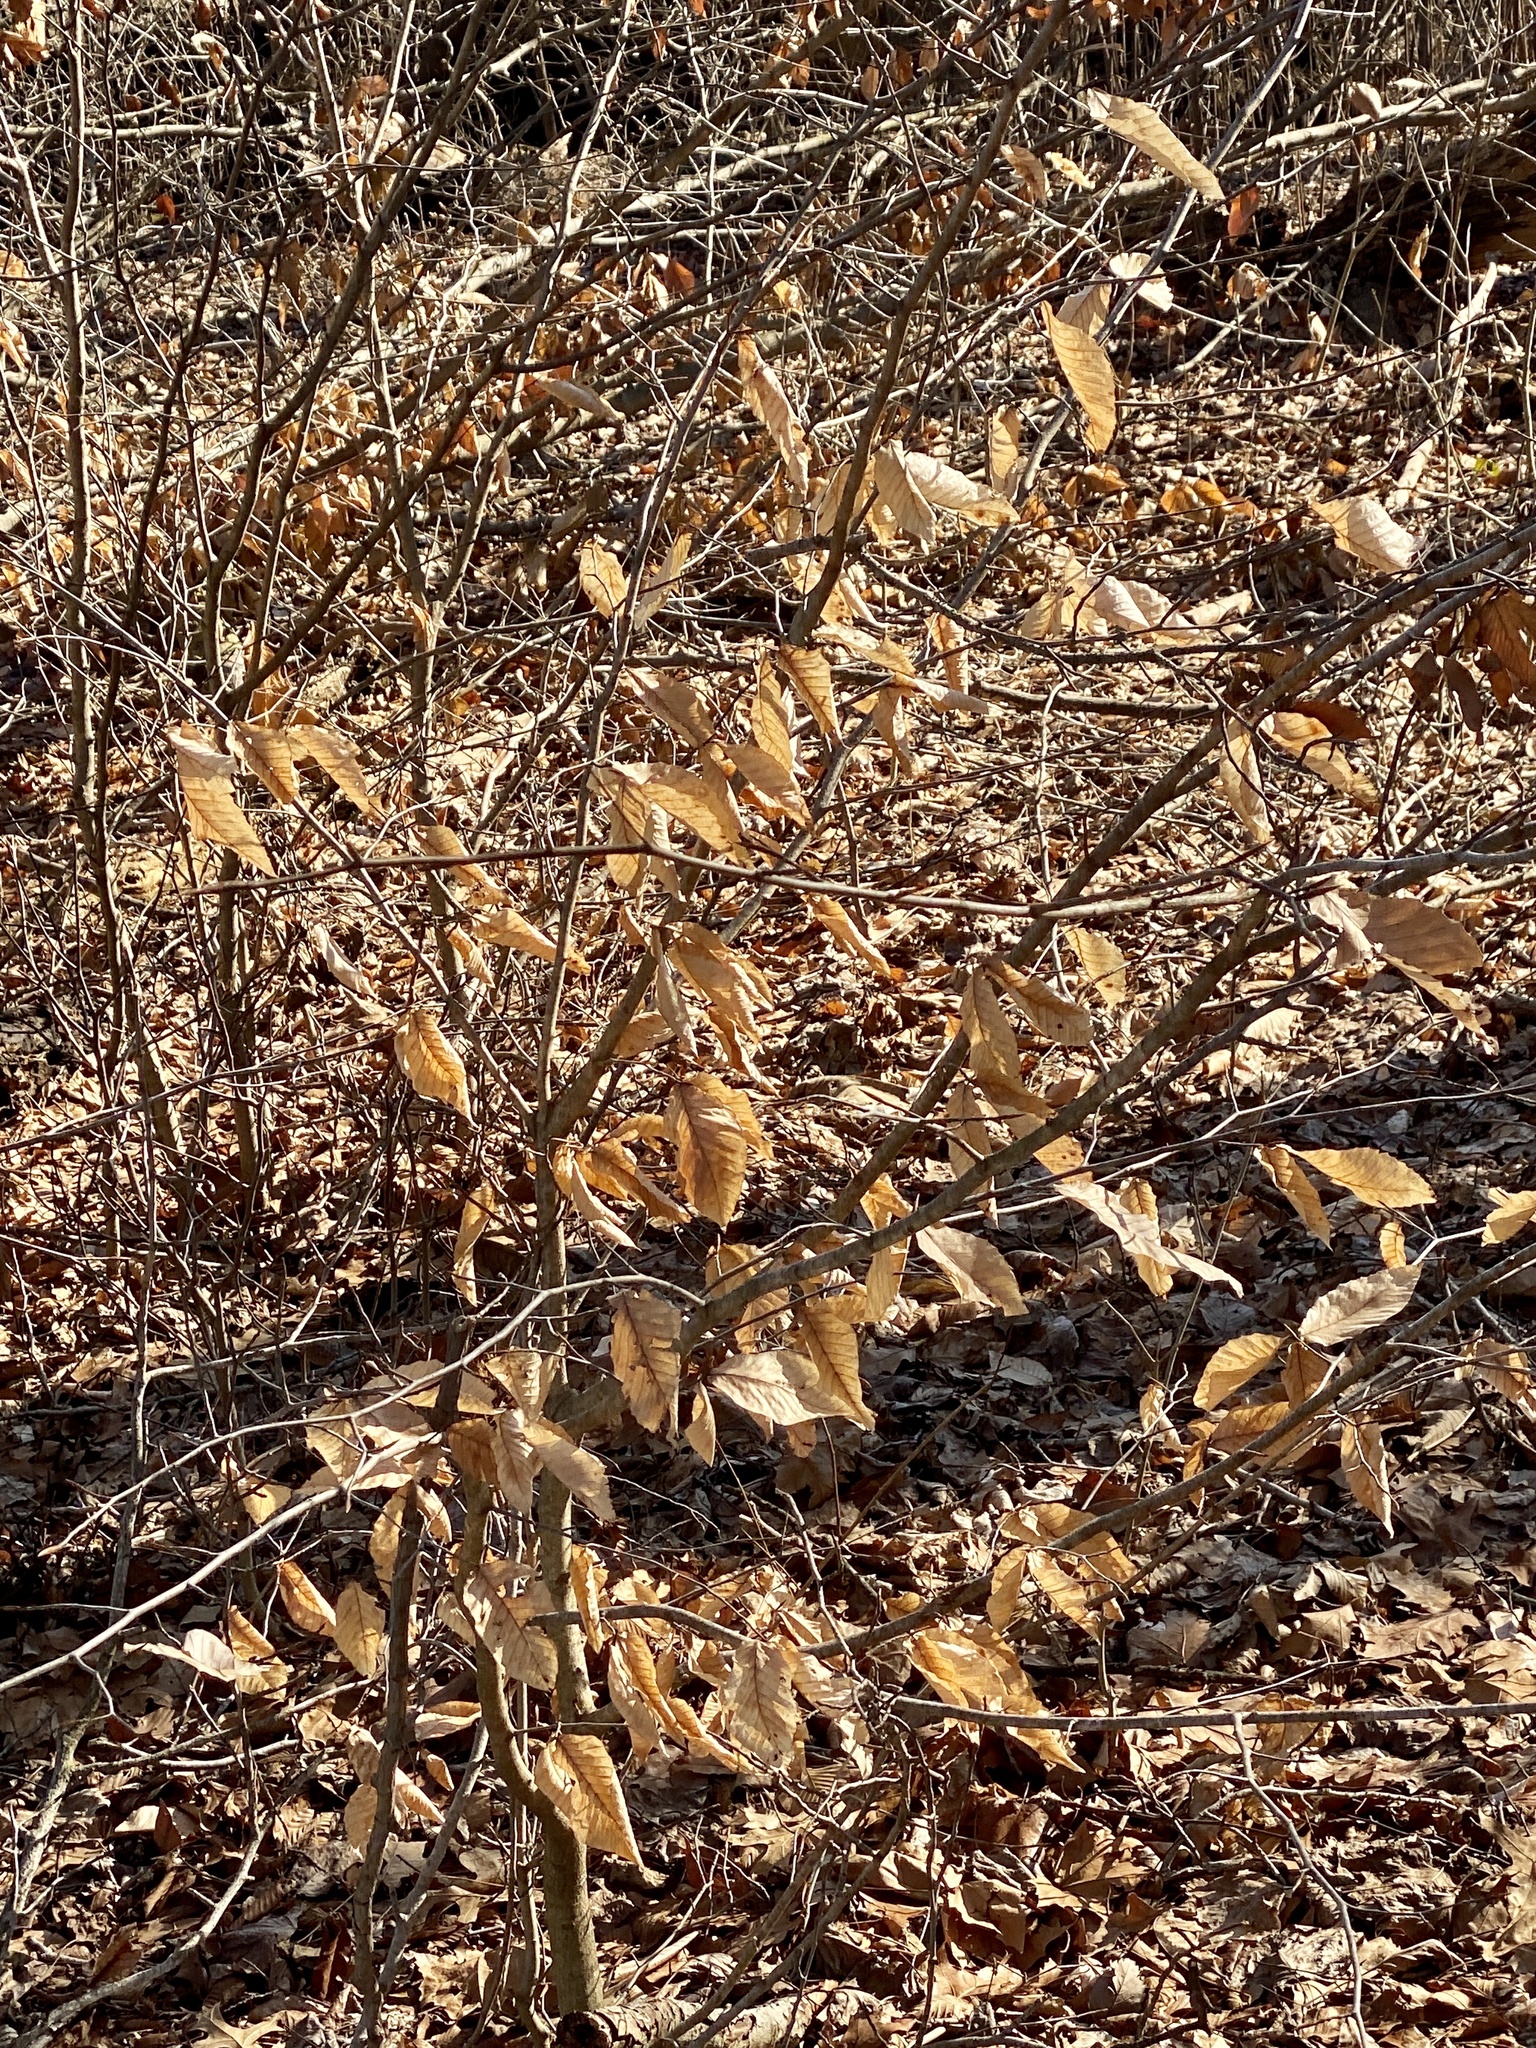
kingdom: Plantae
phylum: Tracheophyta
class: Magnoliopsida
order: Fagales
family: Fagaceae
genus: Fagus
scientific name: Fagus grandifolia
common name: American beech
